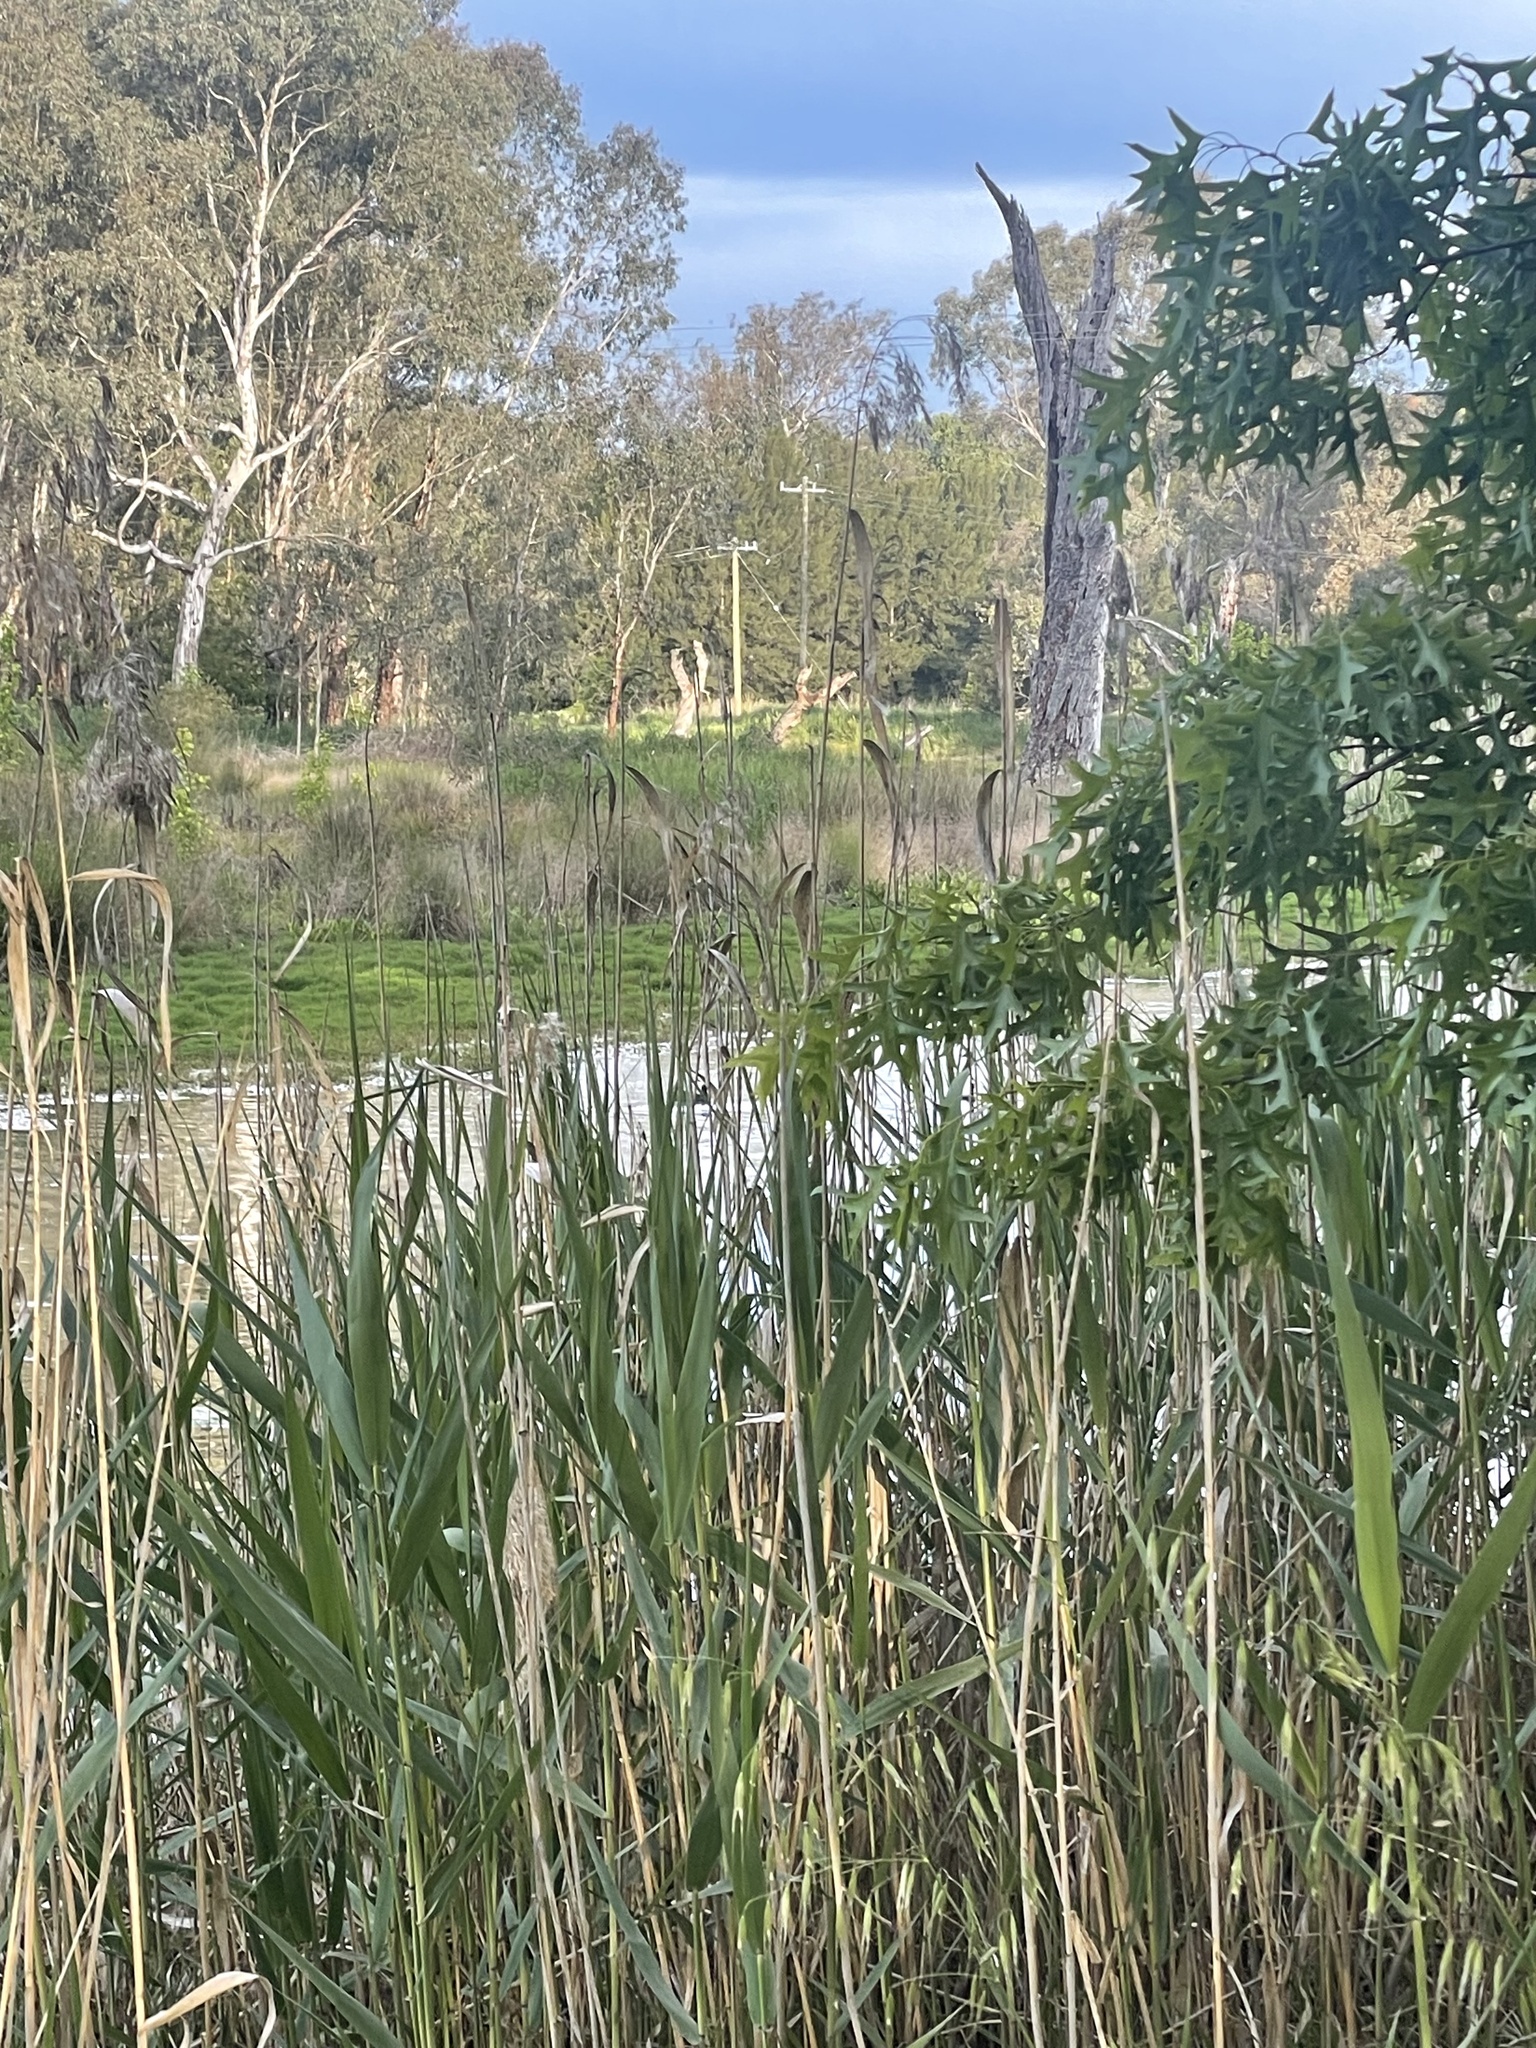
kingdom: Plantae
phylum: Tracheophyta
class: Liliopsida
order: Poales
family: Poaceae
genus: Phragmites
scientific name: Phragmites australis
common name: Common reed
